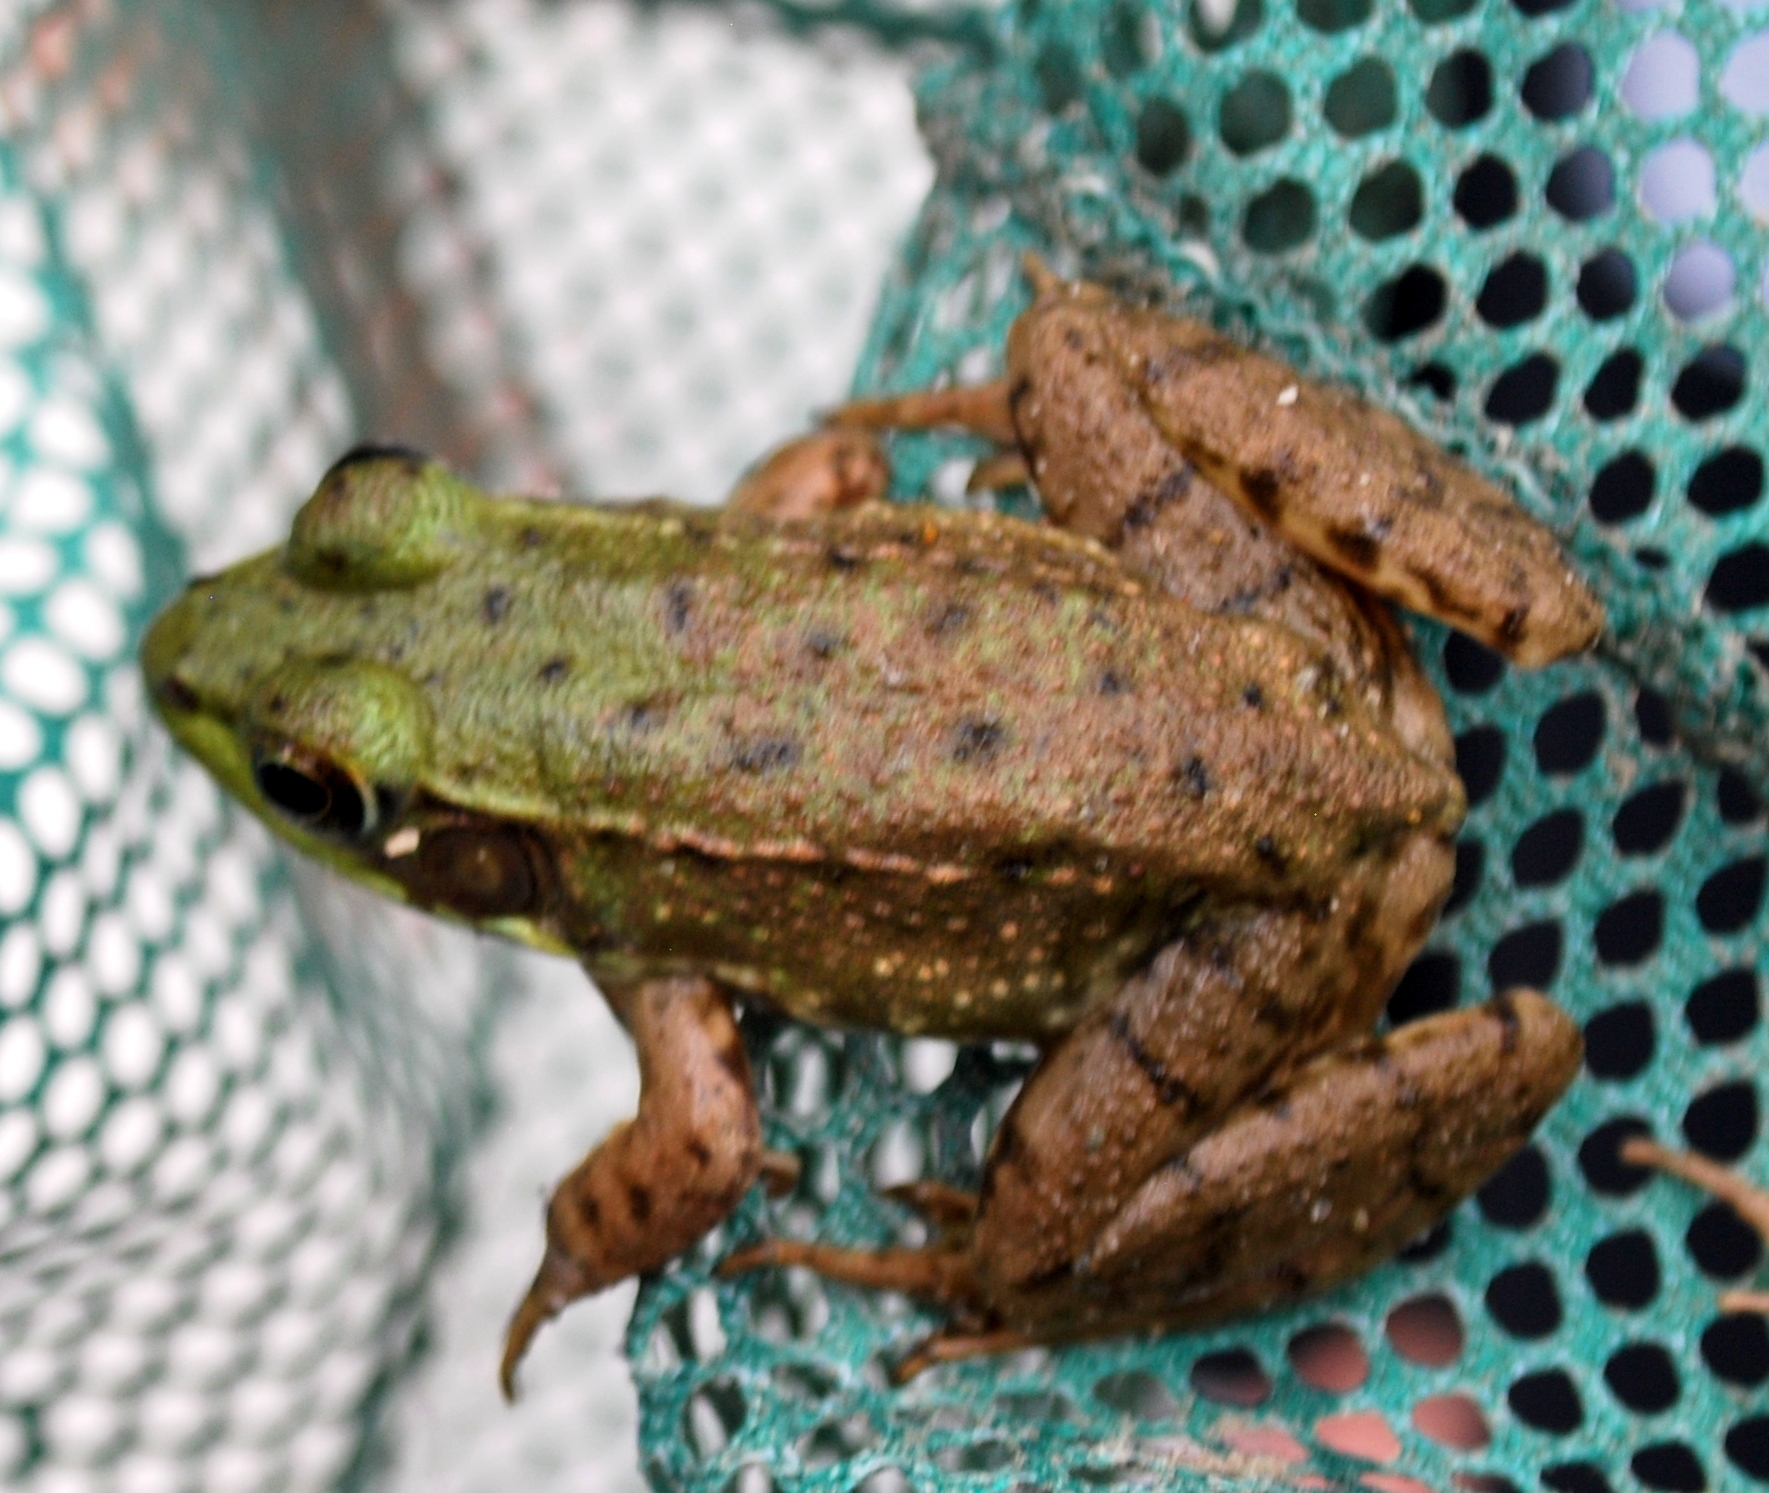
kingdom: Animalia
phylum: Chordata
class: Amphibia
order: Anura
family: Ranidae
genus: Lithobates
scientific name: Lithobates clamitans
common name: Green frog
